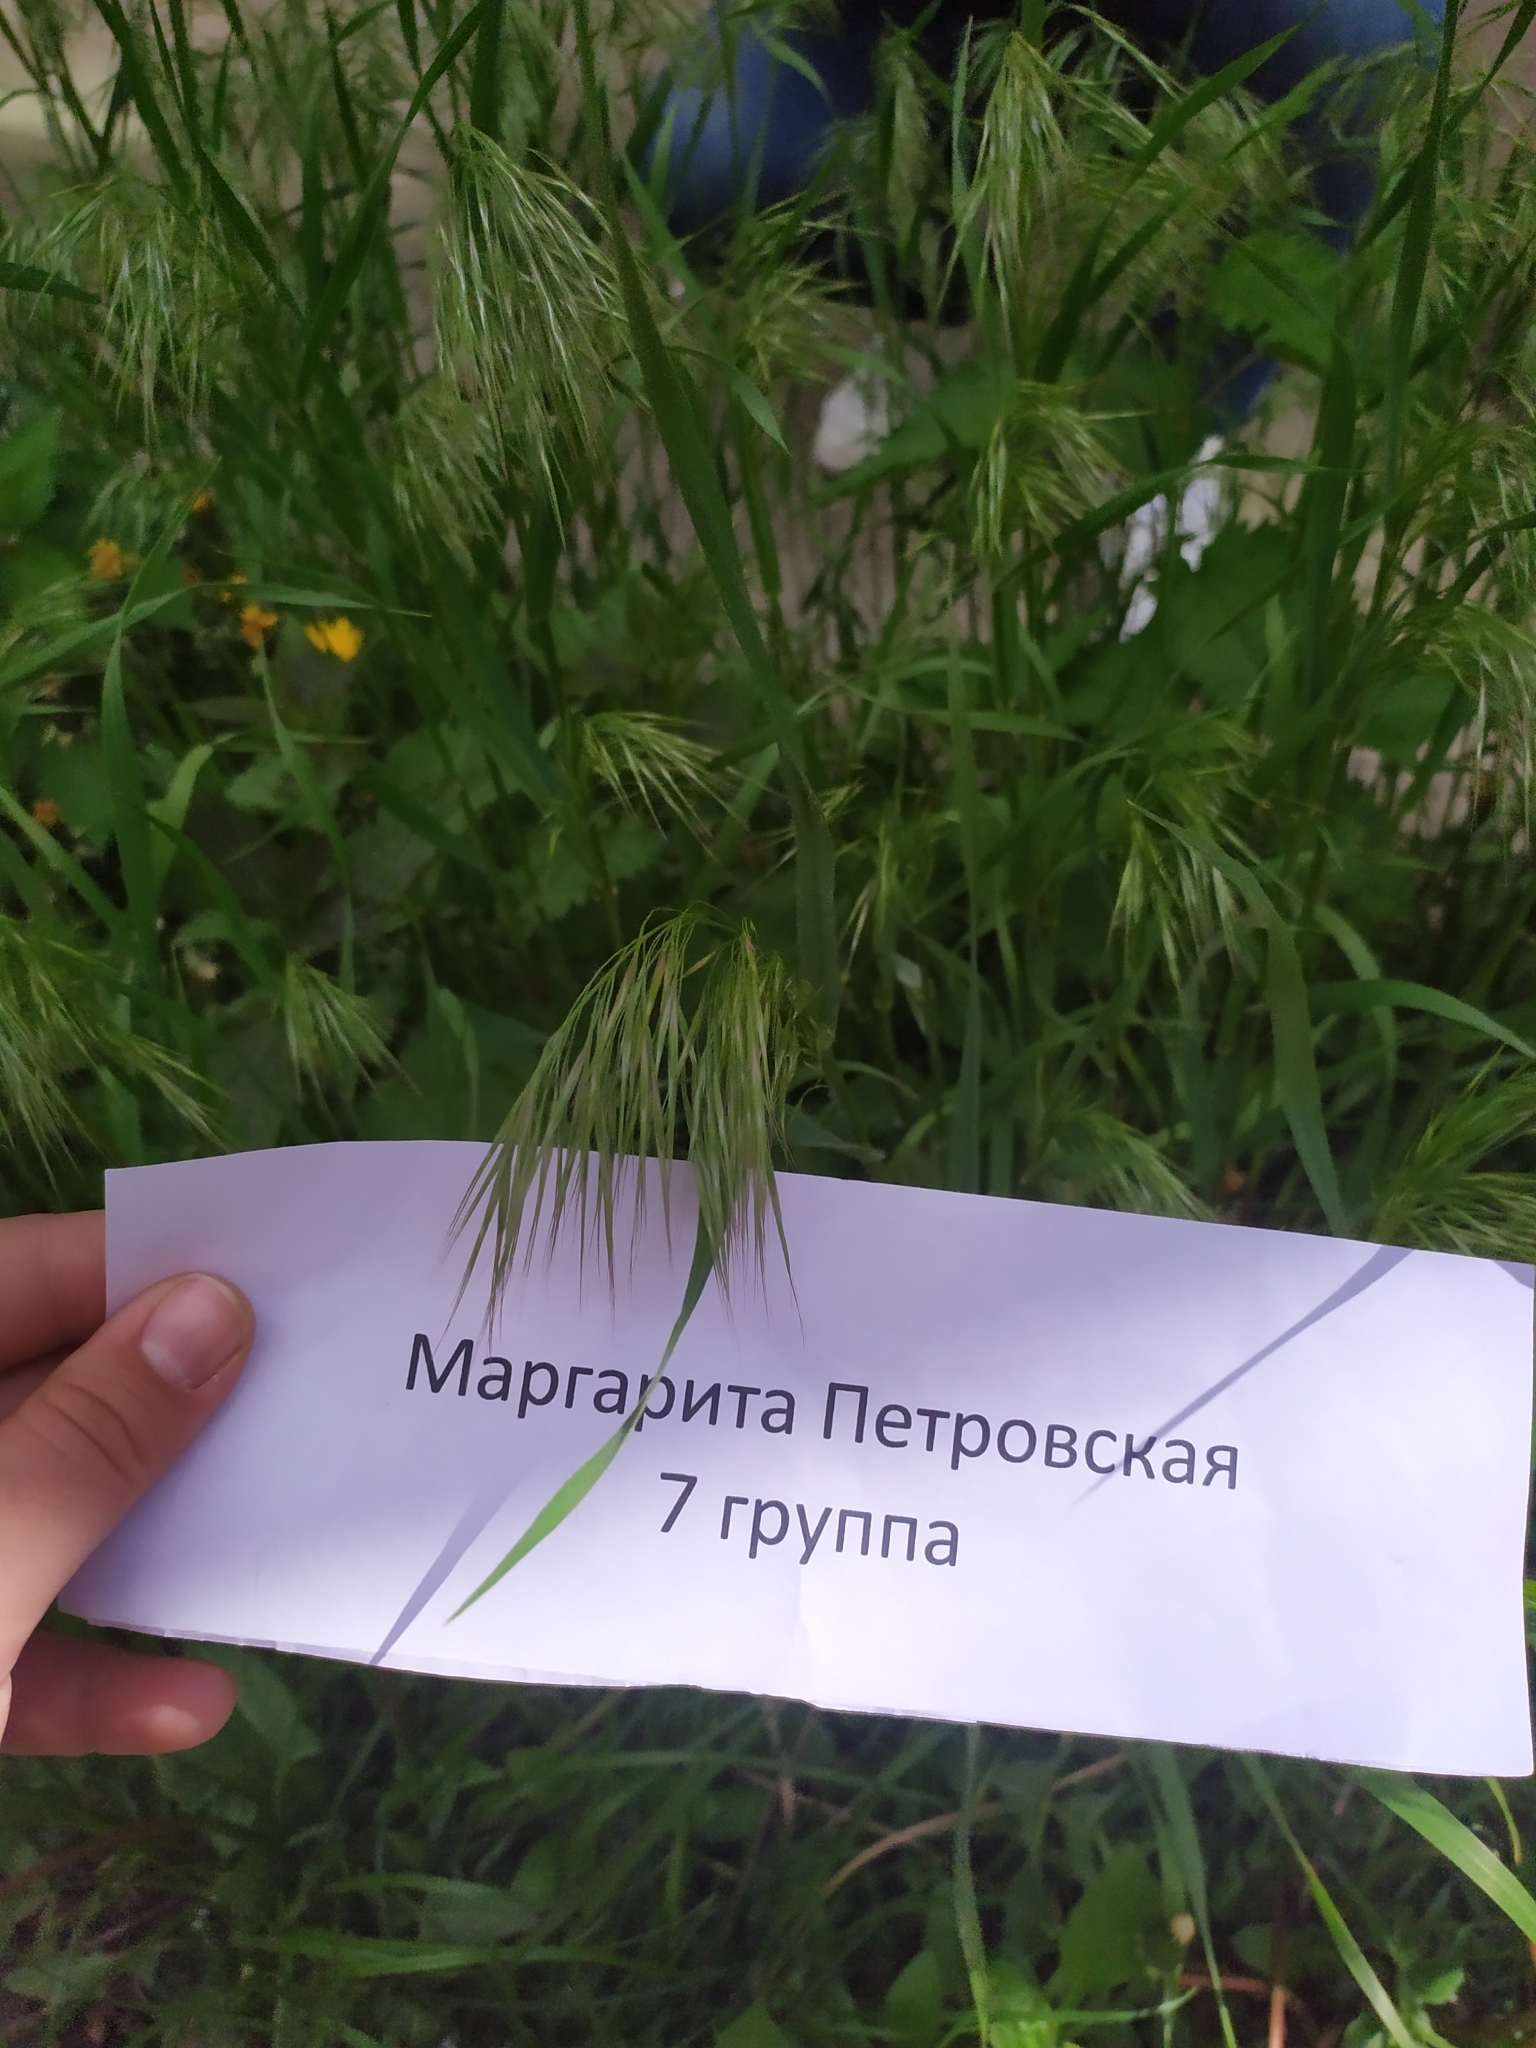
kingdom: Plantae
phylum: Tracheophyta
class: Liliopsida
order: Poales
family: Poaceae
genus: Bromus
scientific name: Bromus tectorum
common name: Cheatgrass
